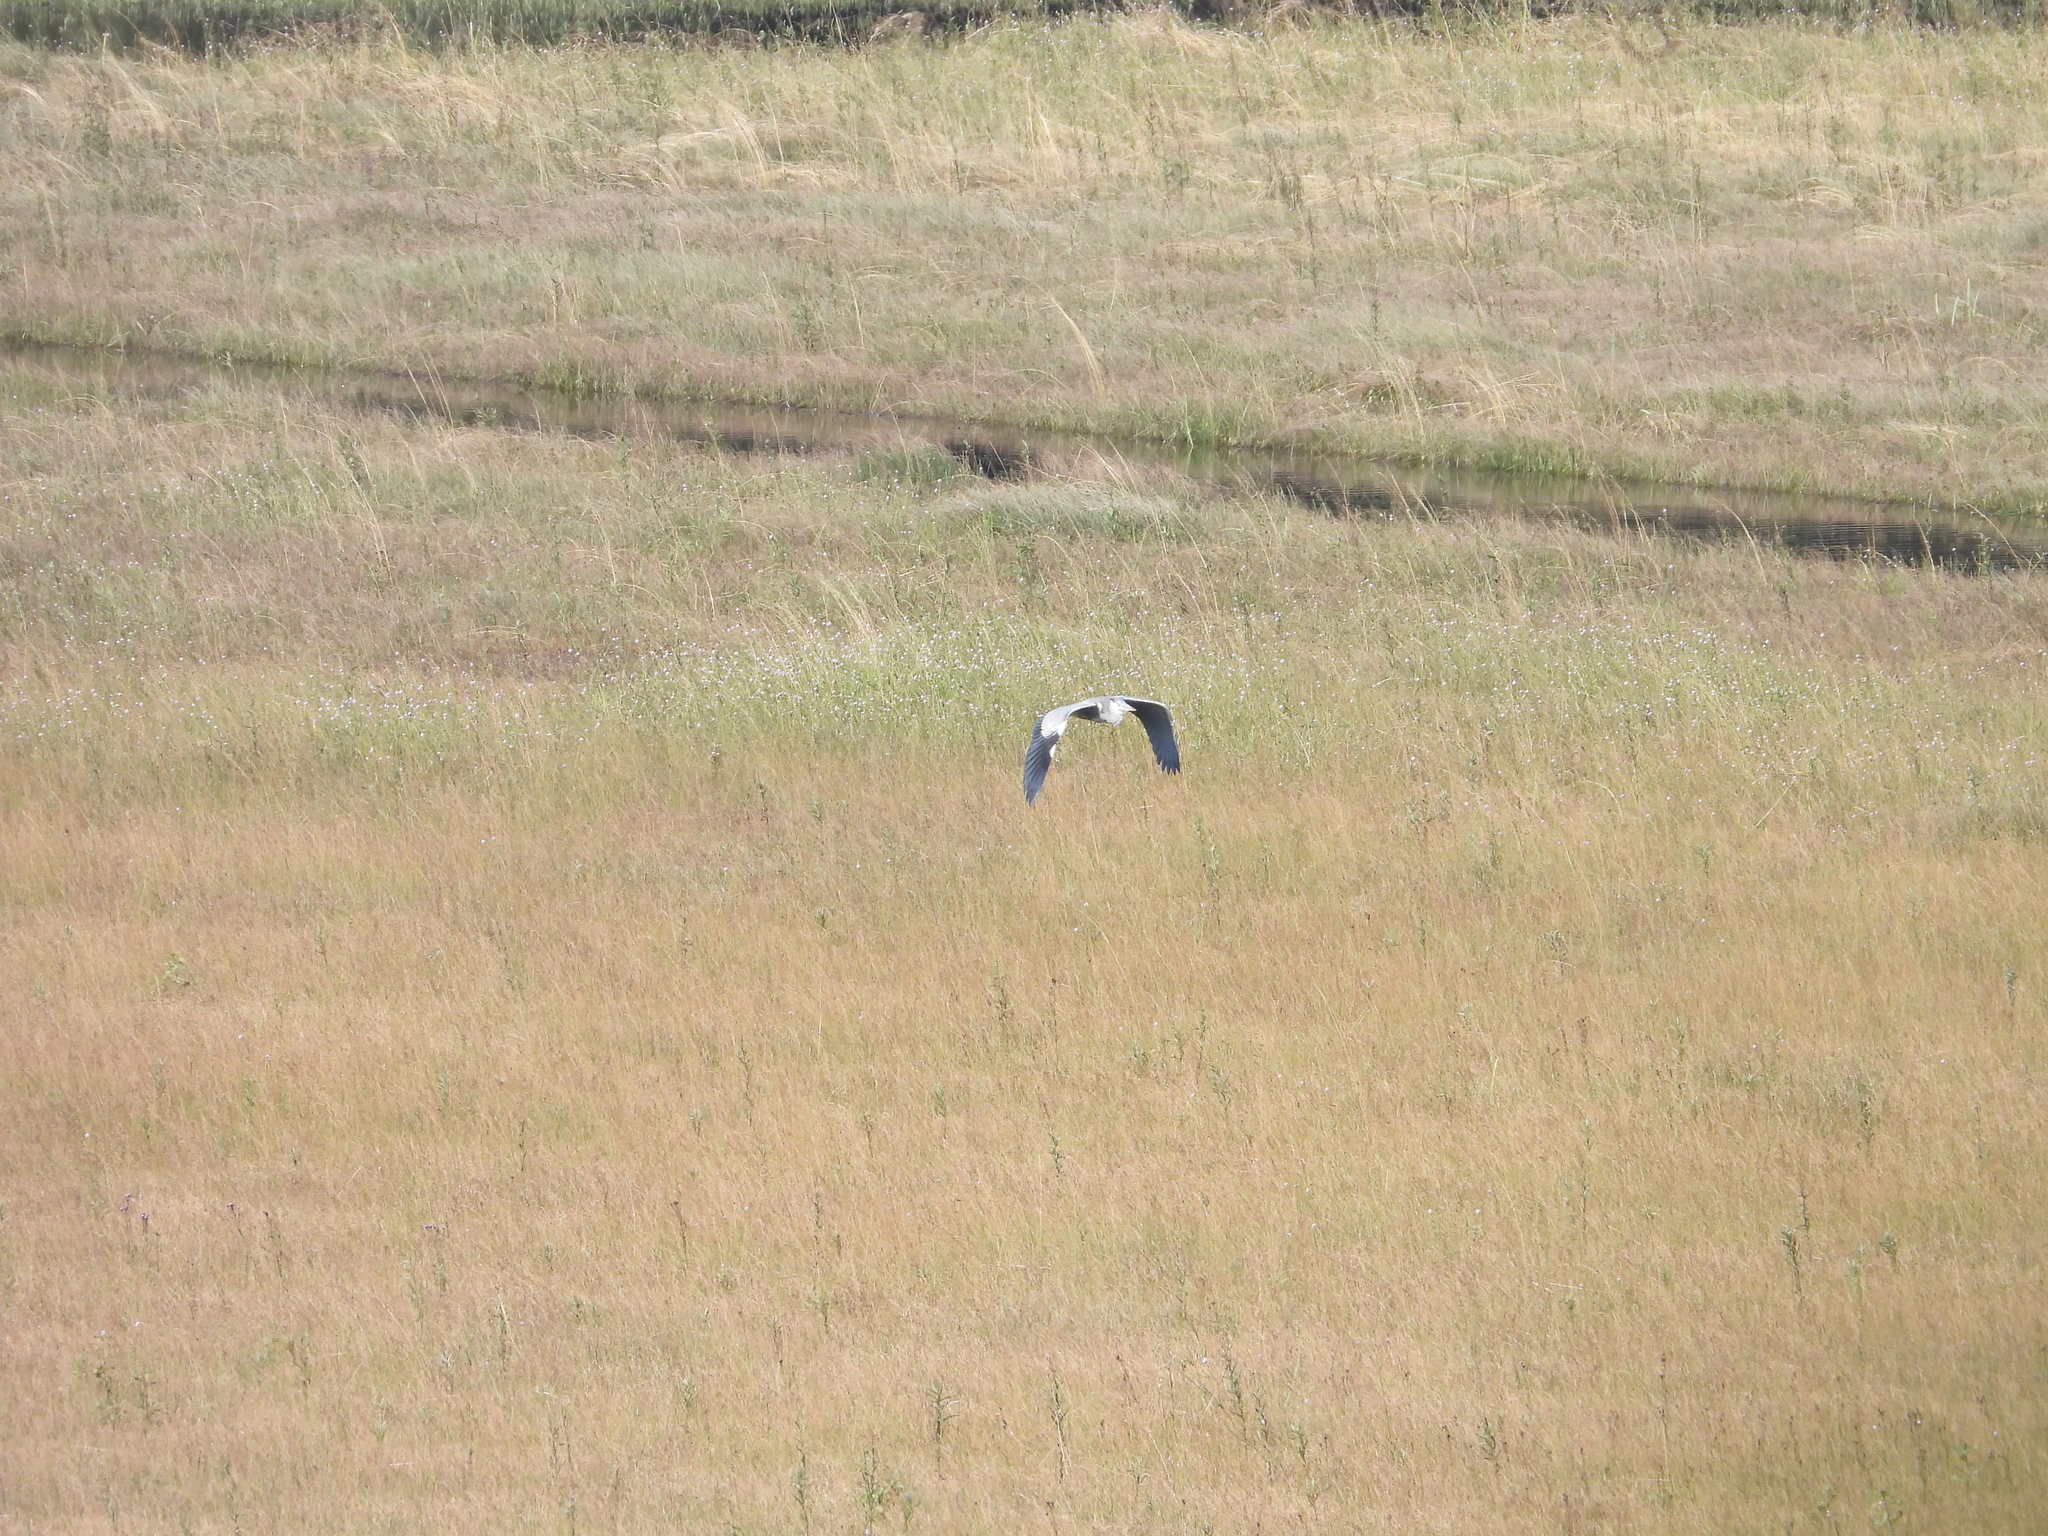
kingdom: Animalia
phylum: Chordata
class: Aves
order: Pelecaniformes
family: Ardeidae
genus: Ardea
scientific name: Ardea cinerea
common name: Grey heron
